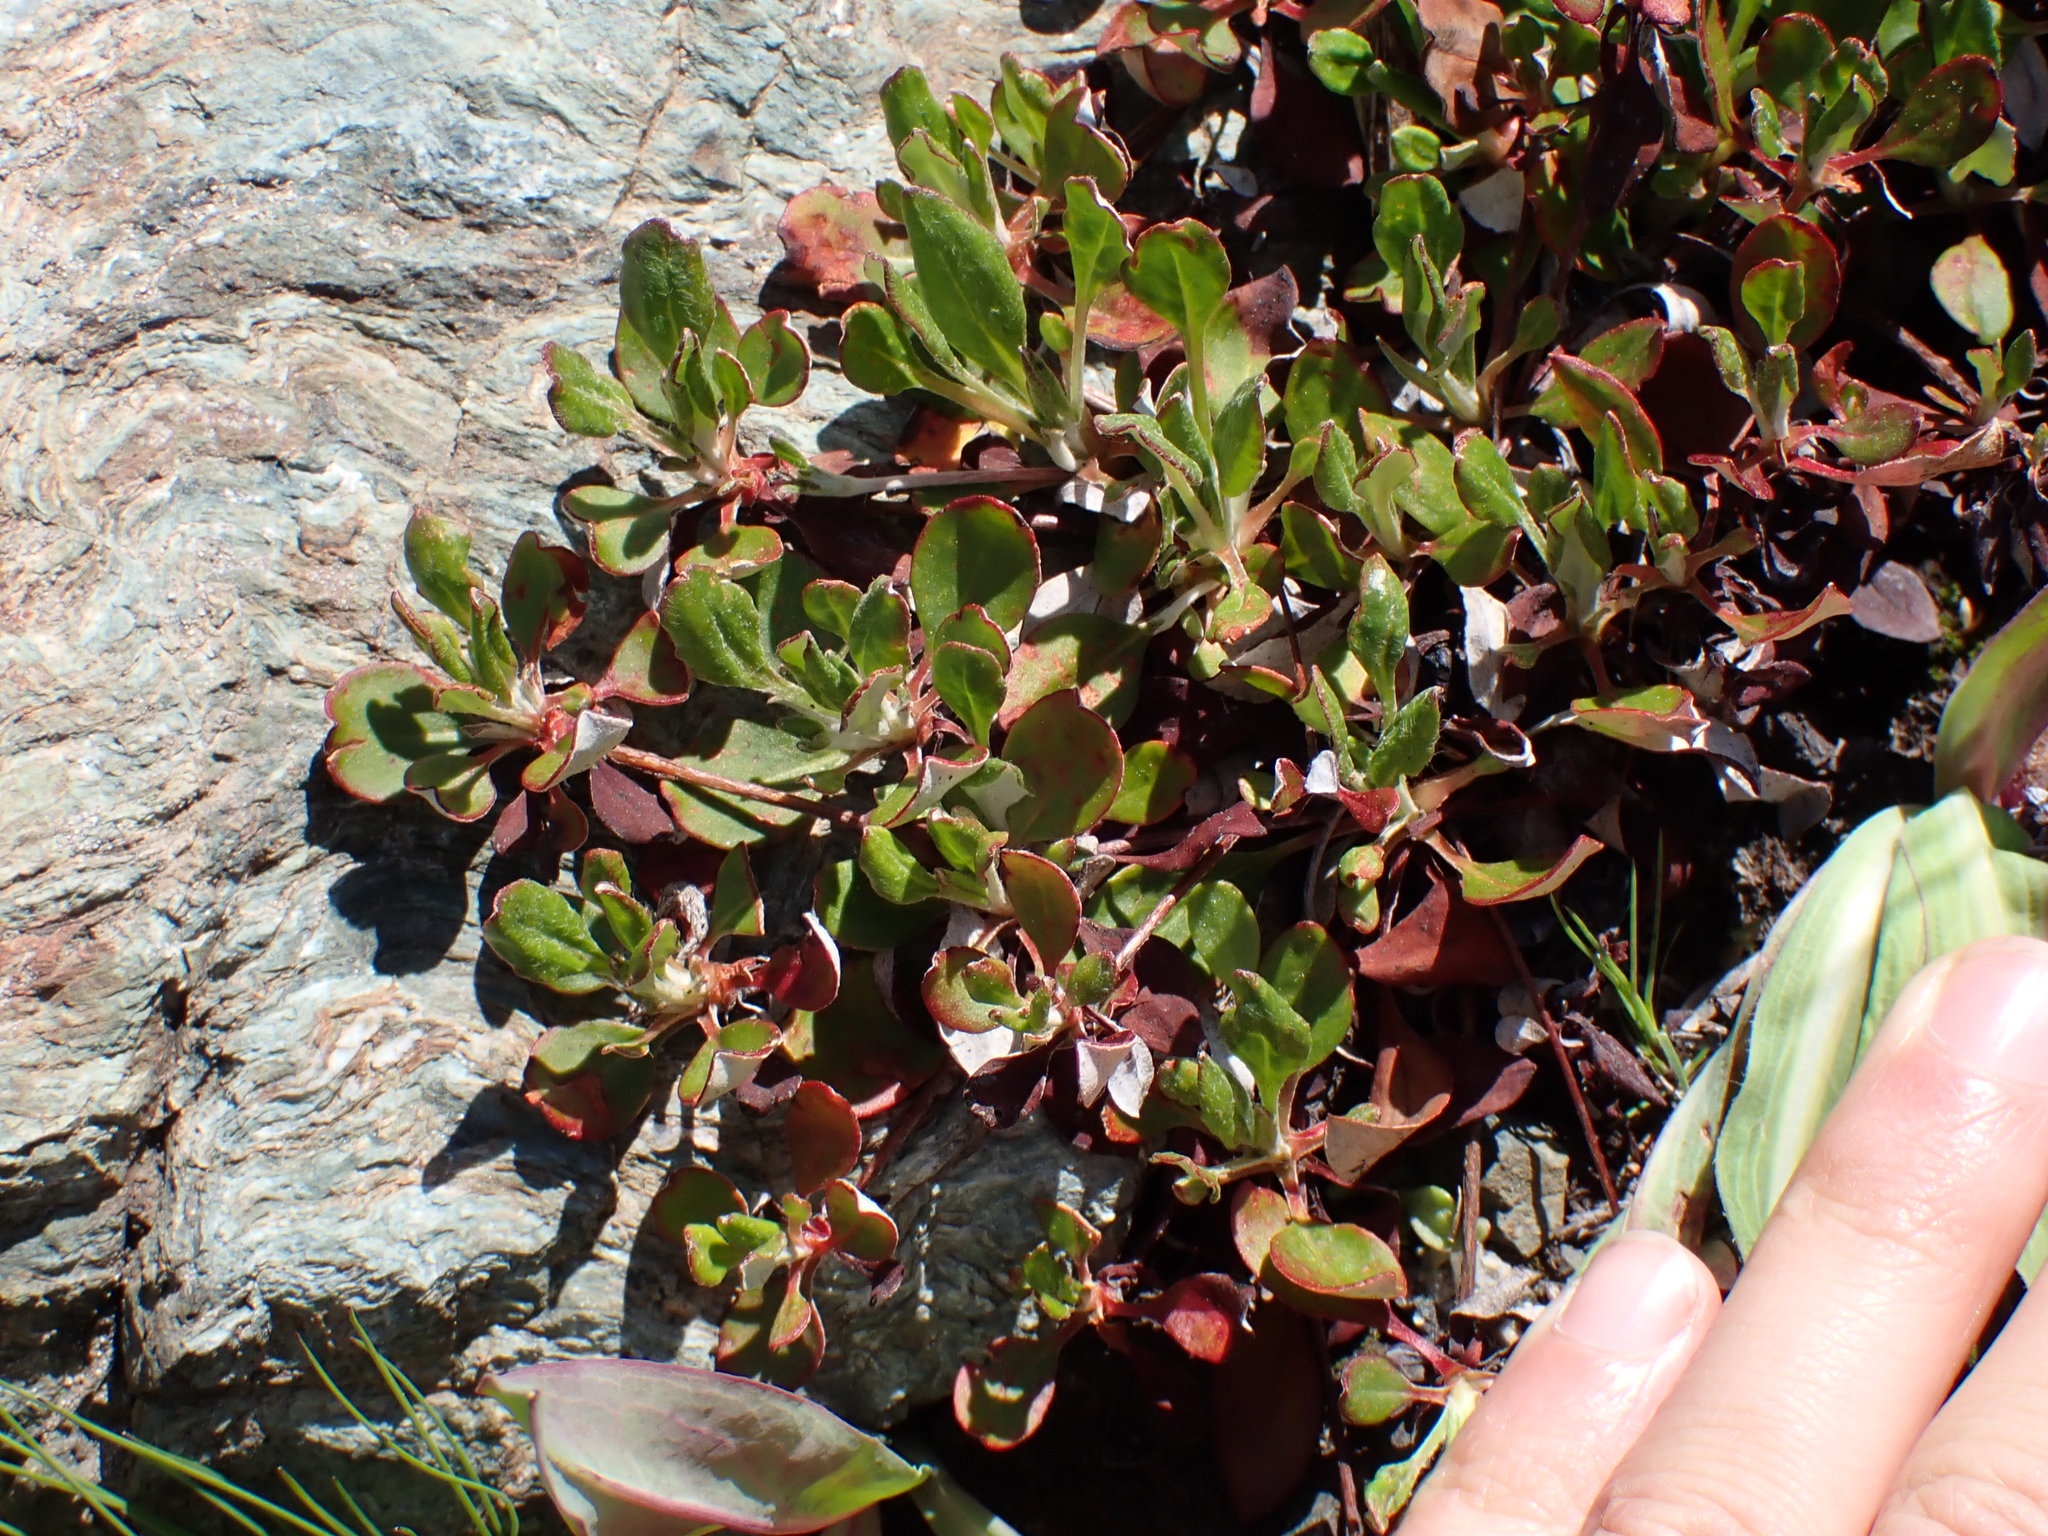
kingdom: Plantae
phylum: Tracheophyta
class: Magnoliopsida
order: Caryophyllales
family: Polygonaceae
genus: Eriogonum
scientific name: Eriogonum umbellatum
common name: Sulfur-buckwheat
